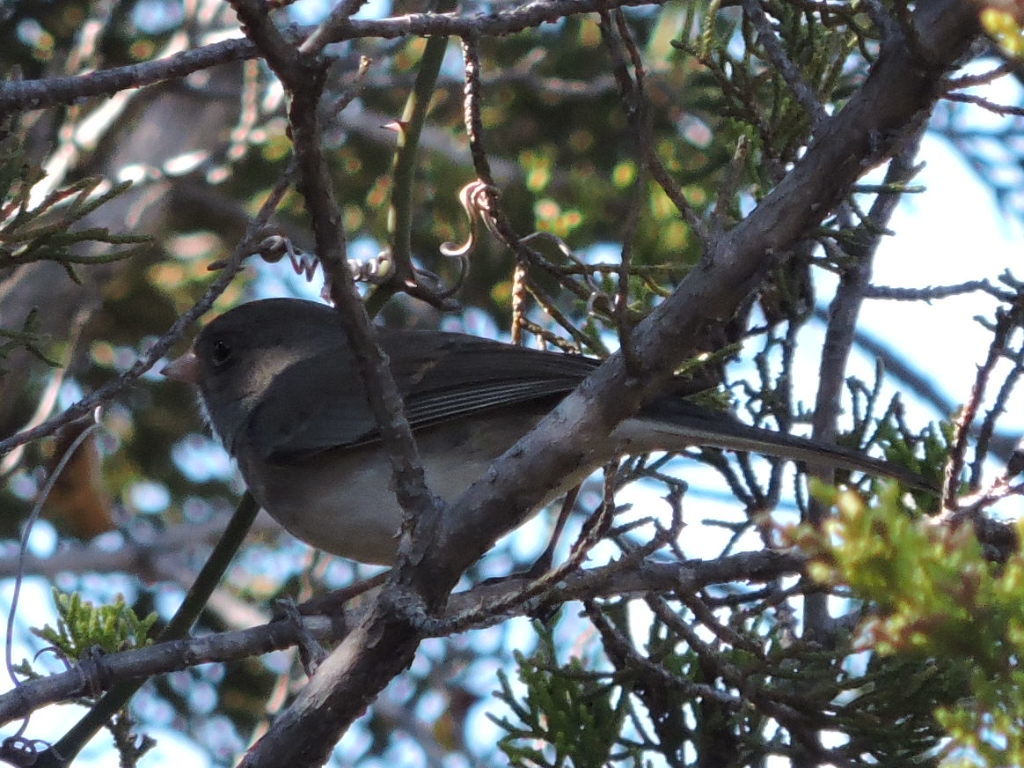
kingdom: Animalia
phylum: Chordata
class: Aves
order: Passeriformes
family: Passerellidae
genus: Junco
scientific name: Junco hyemalis
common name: Dark-eyed junco
